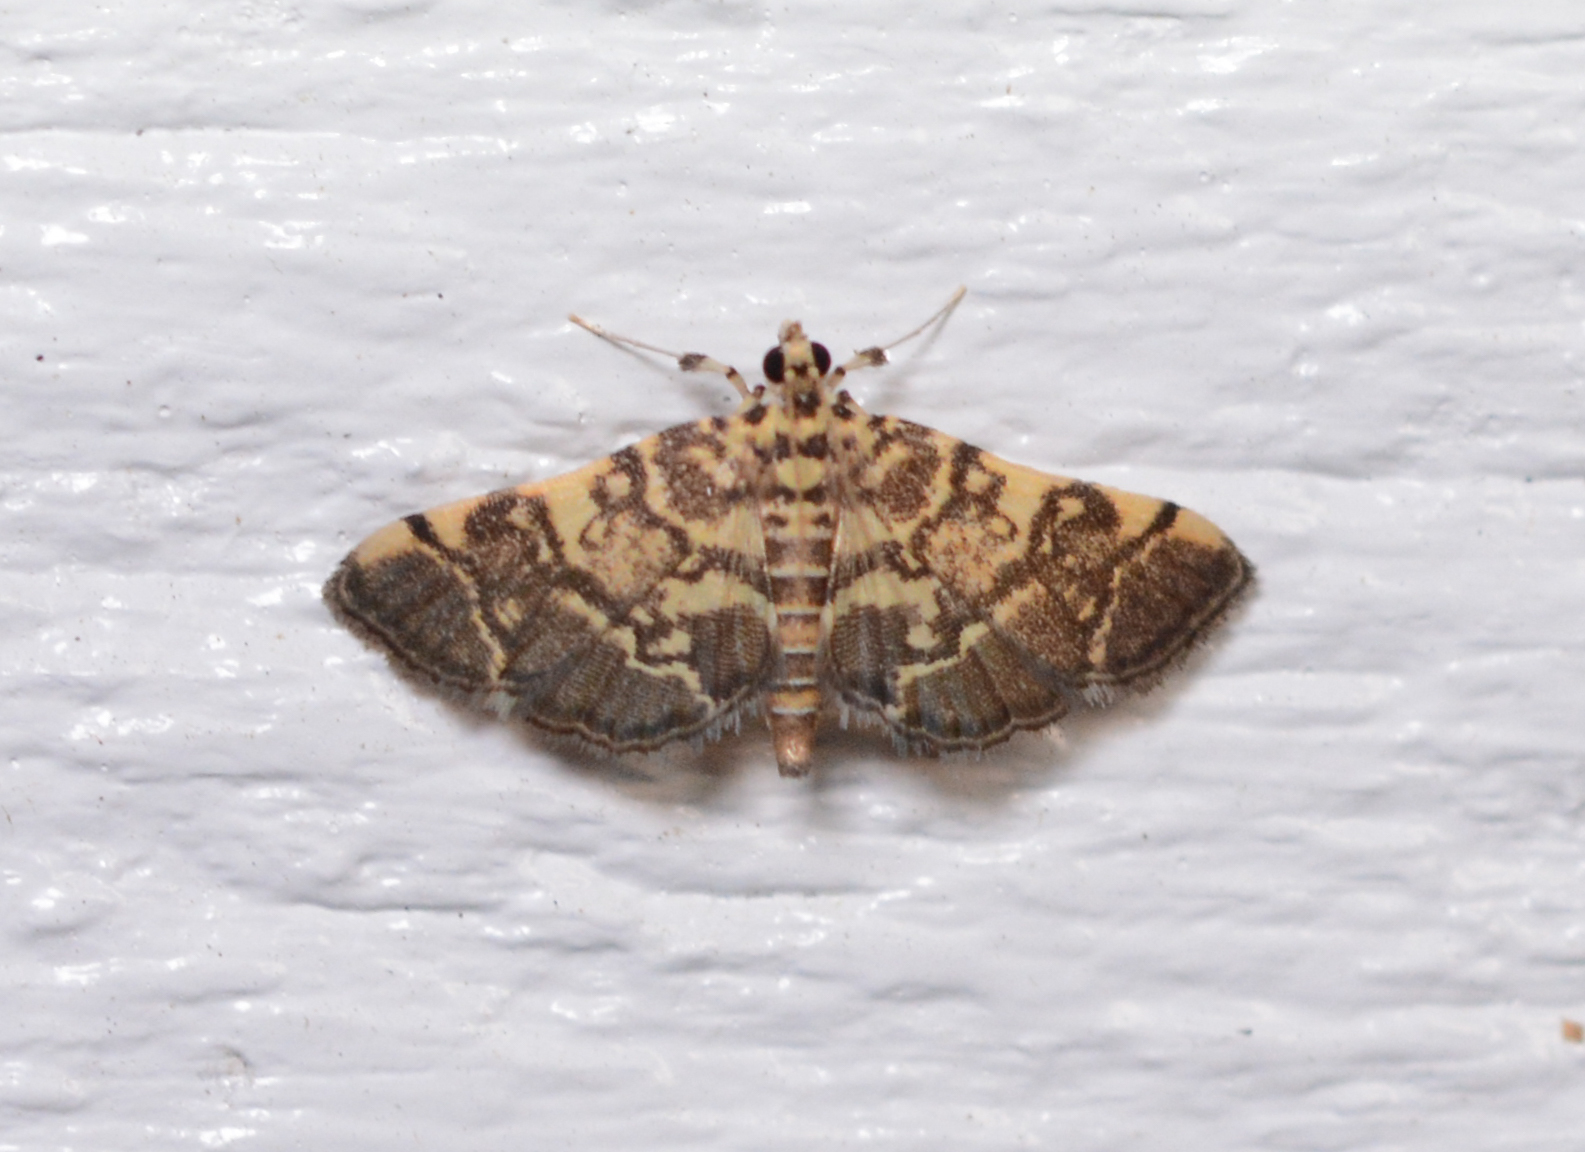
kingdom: Animalia
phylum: Arthropoda
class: Insecta
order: Lepidoptera
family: Crambidae
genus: Apogeshna
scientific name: Apogeshna stenialis
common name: Checkered apogeshna moth
